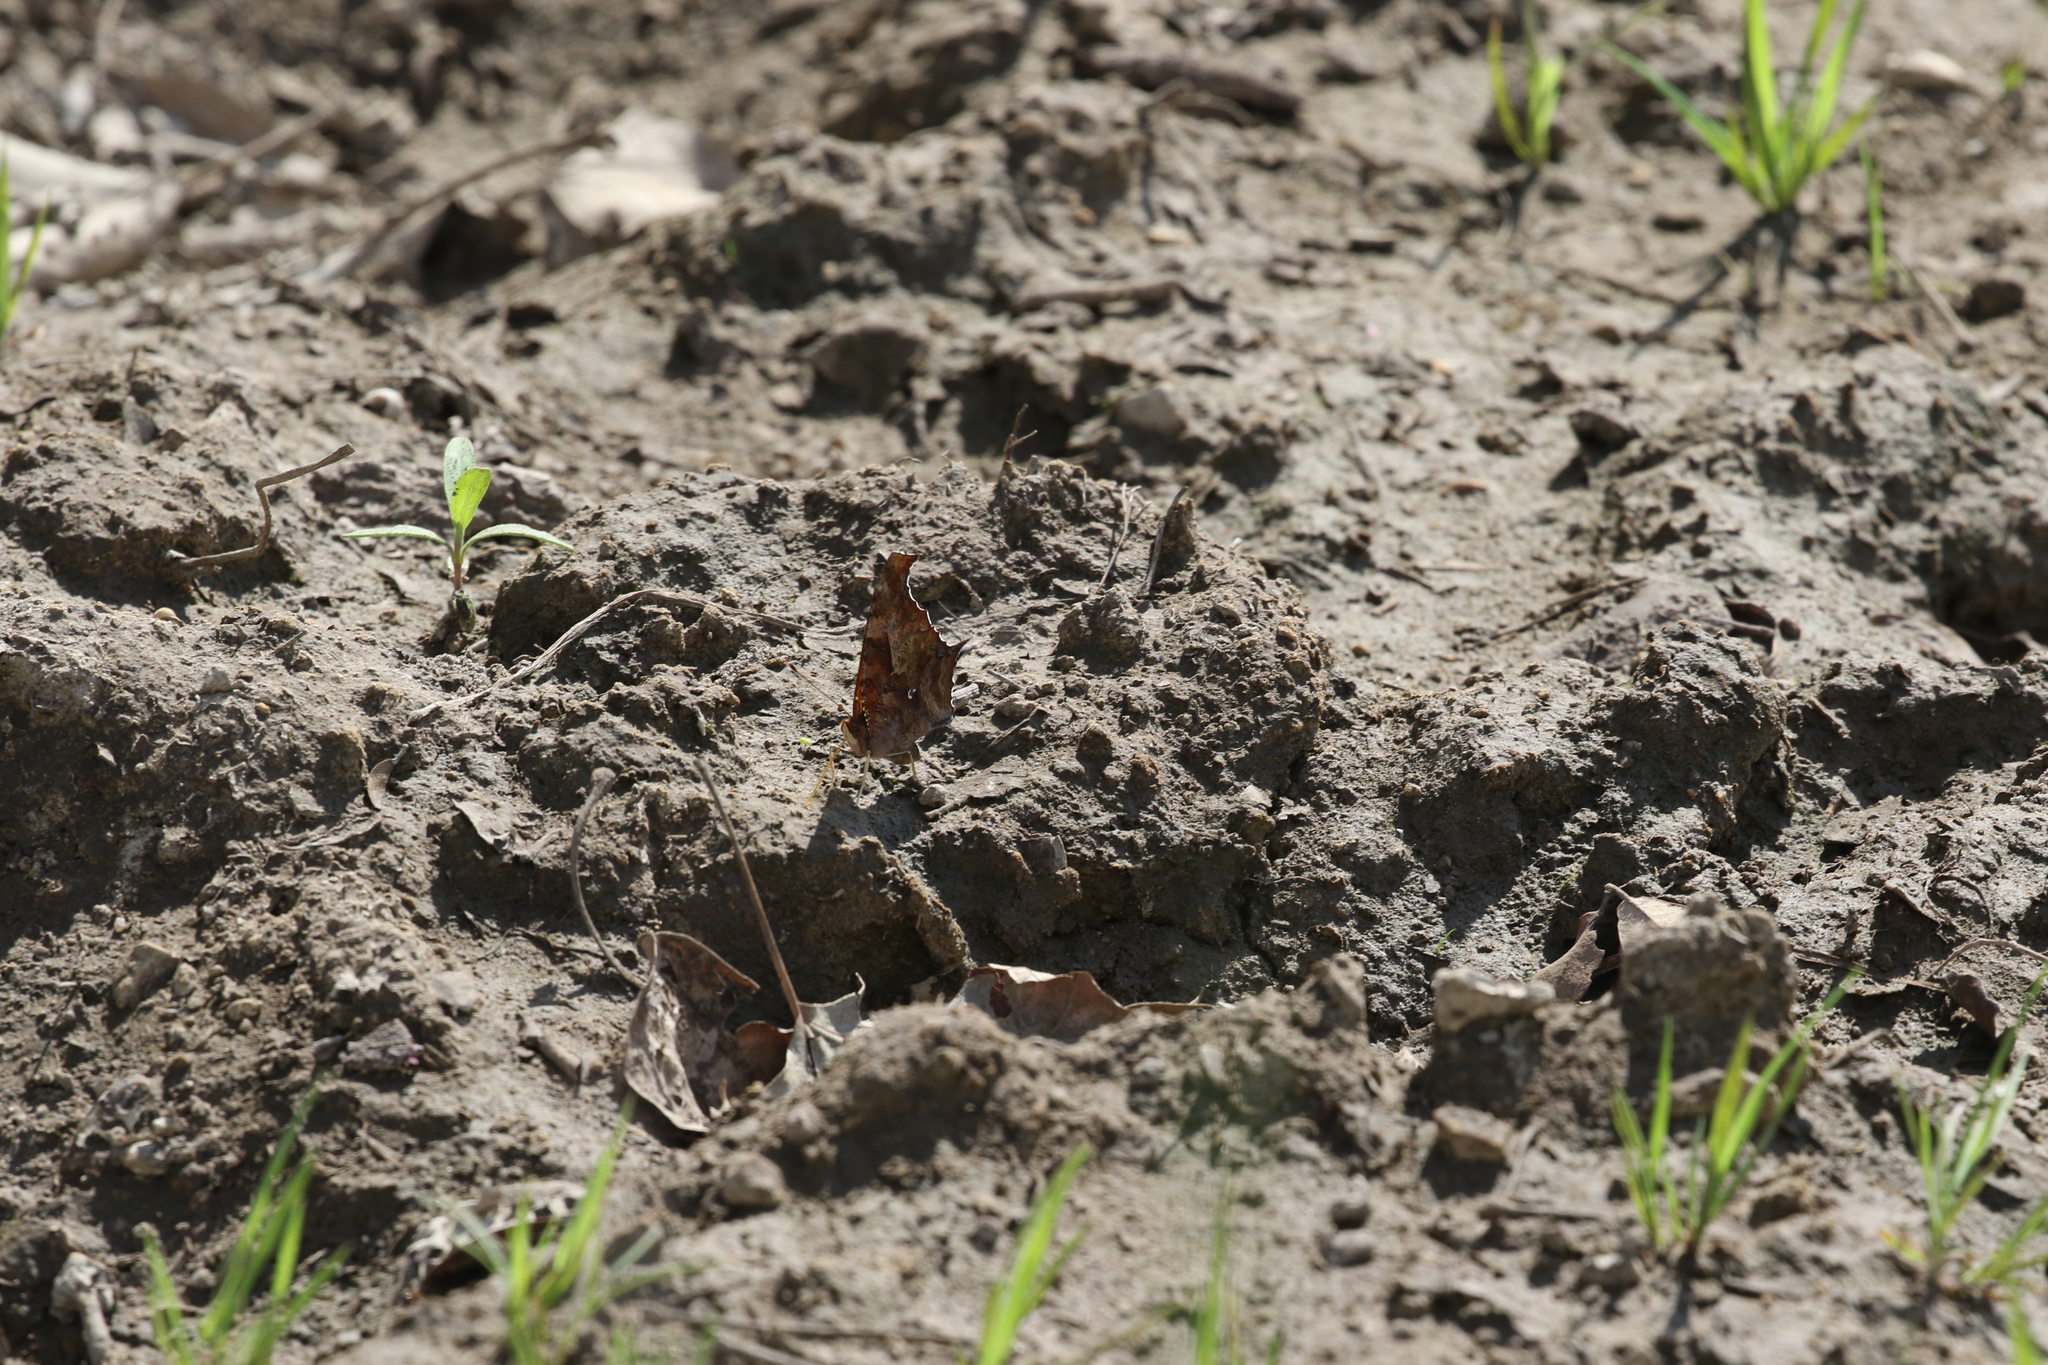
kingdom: Animalia
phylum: Arthropoda
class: Insecta
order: Lepidoptera
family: Nymphalidae
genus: Polygonia
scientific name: Polygonia interrogationis
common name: Question mark
